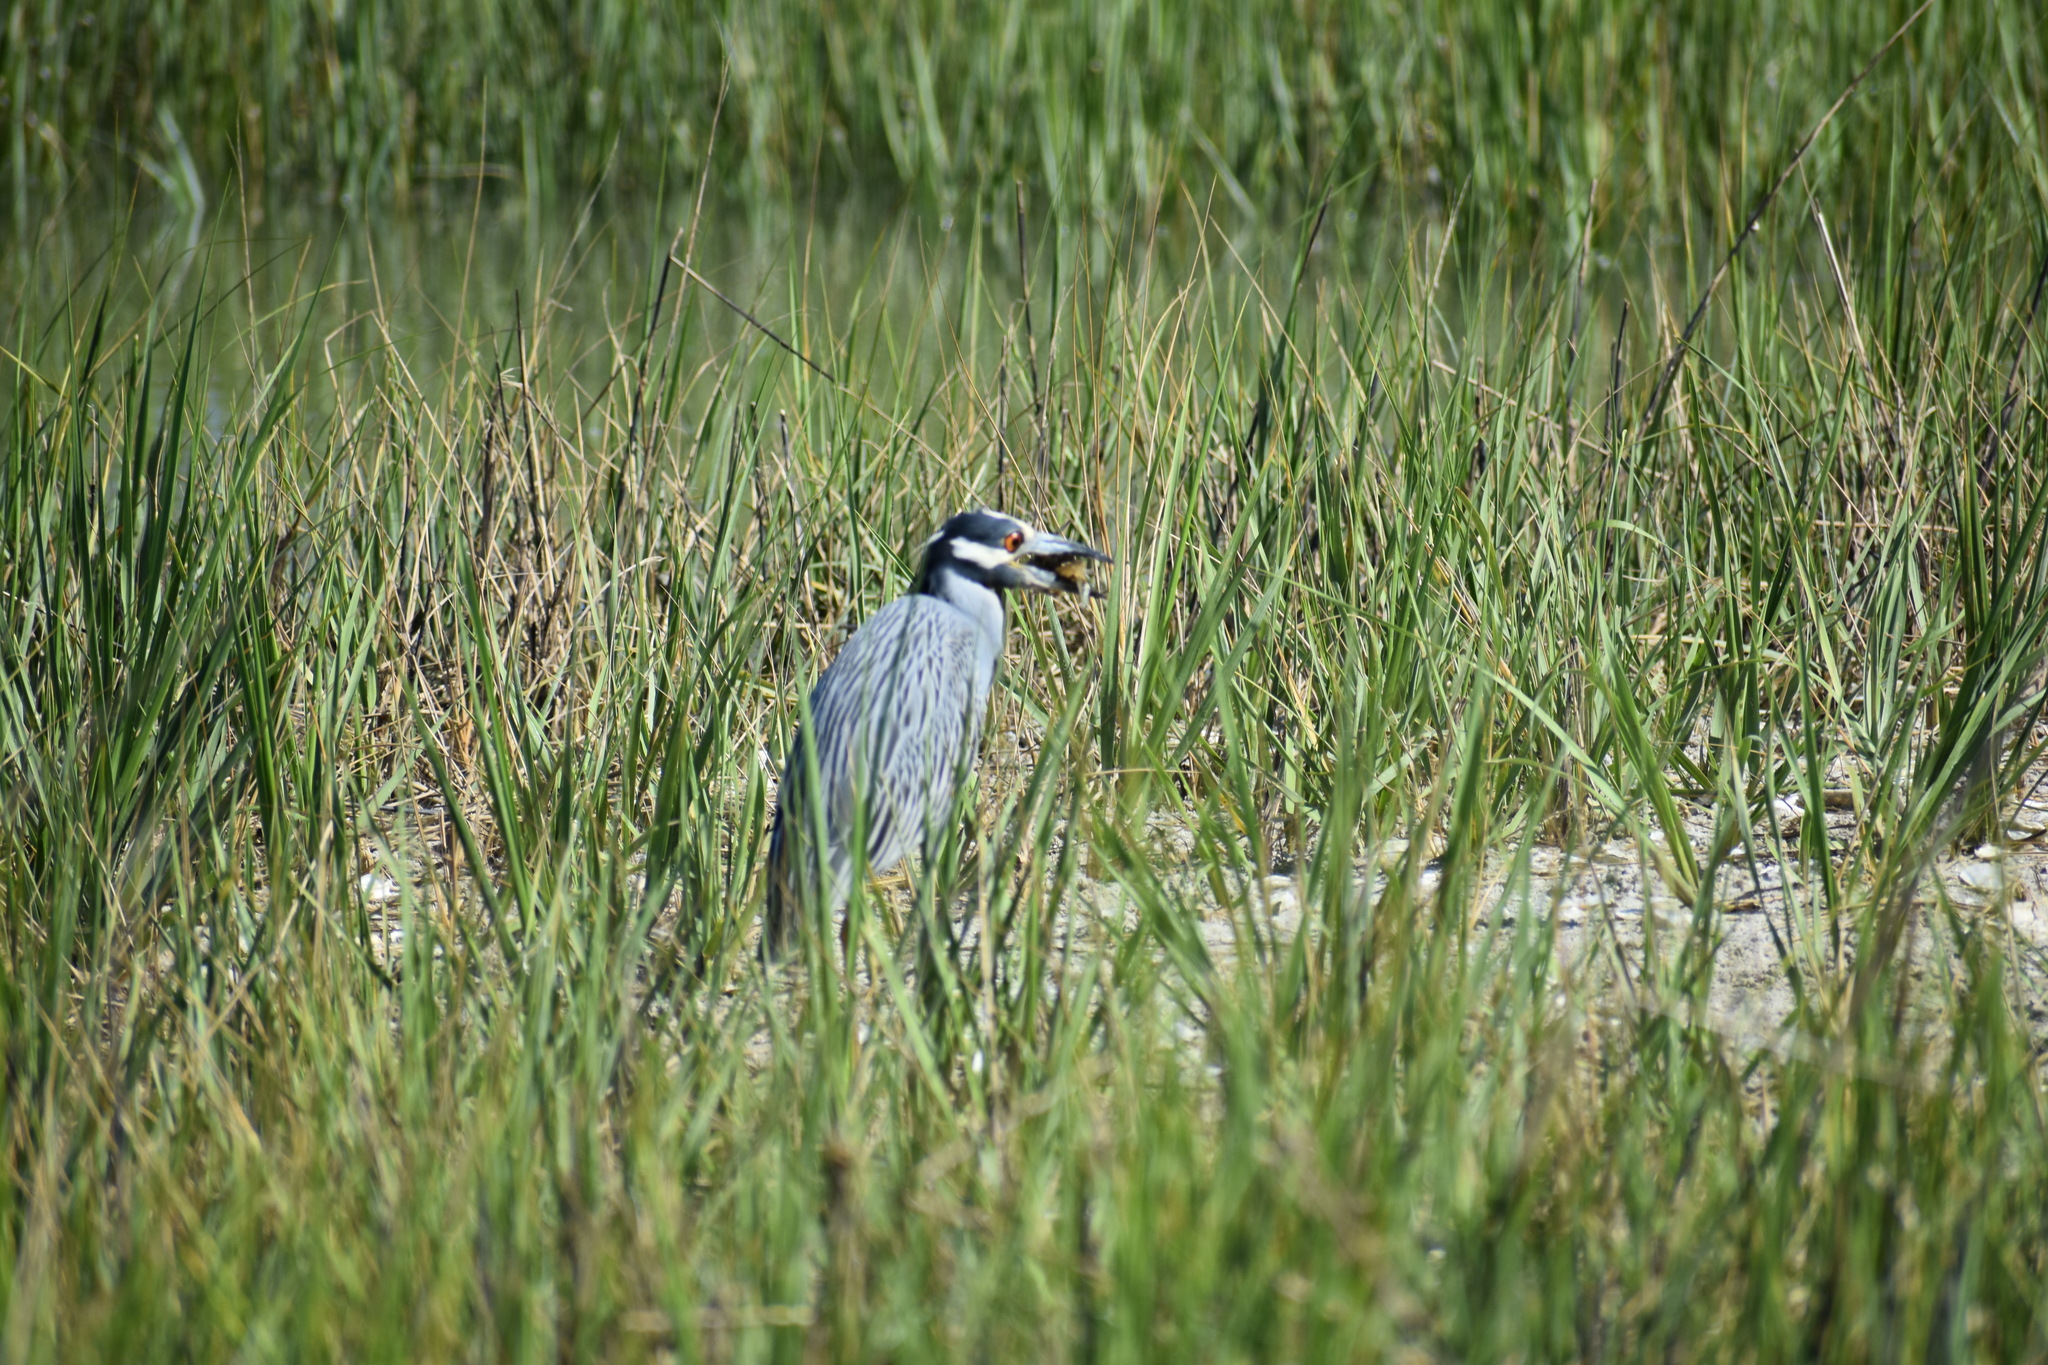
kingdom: Animalia
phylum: Chordata
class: Aves
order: Pelecaniformes
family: Ardeidae
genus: Nyctanassa
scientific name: Nyctanassa violacea
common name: Yellow-crowned night heron
